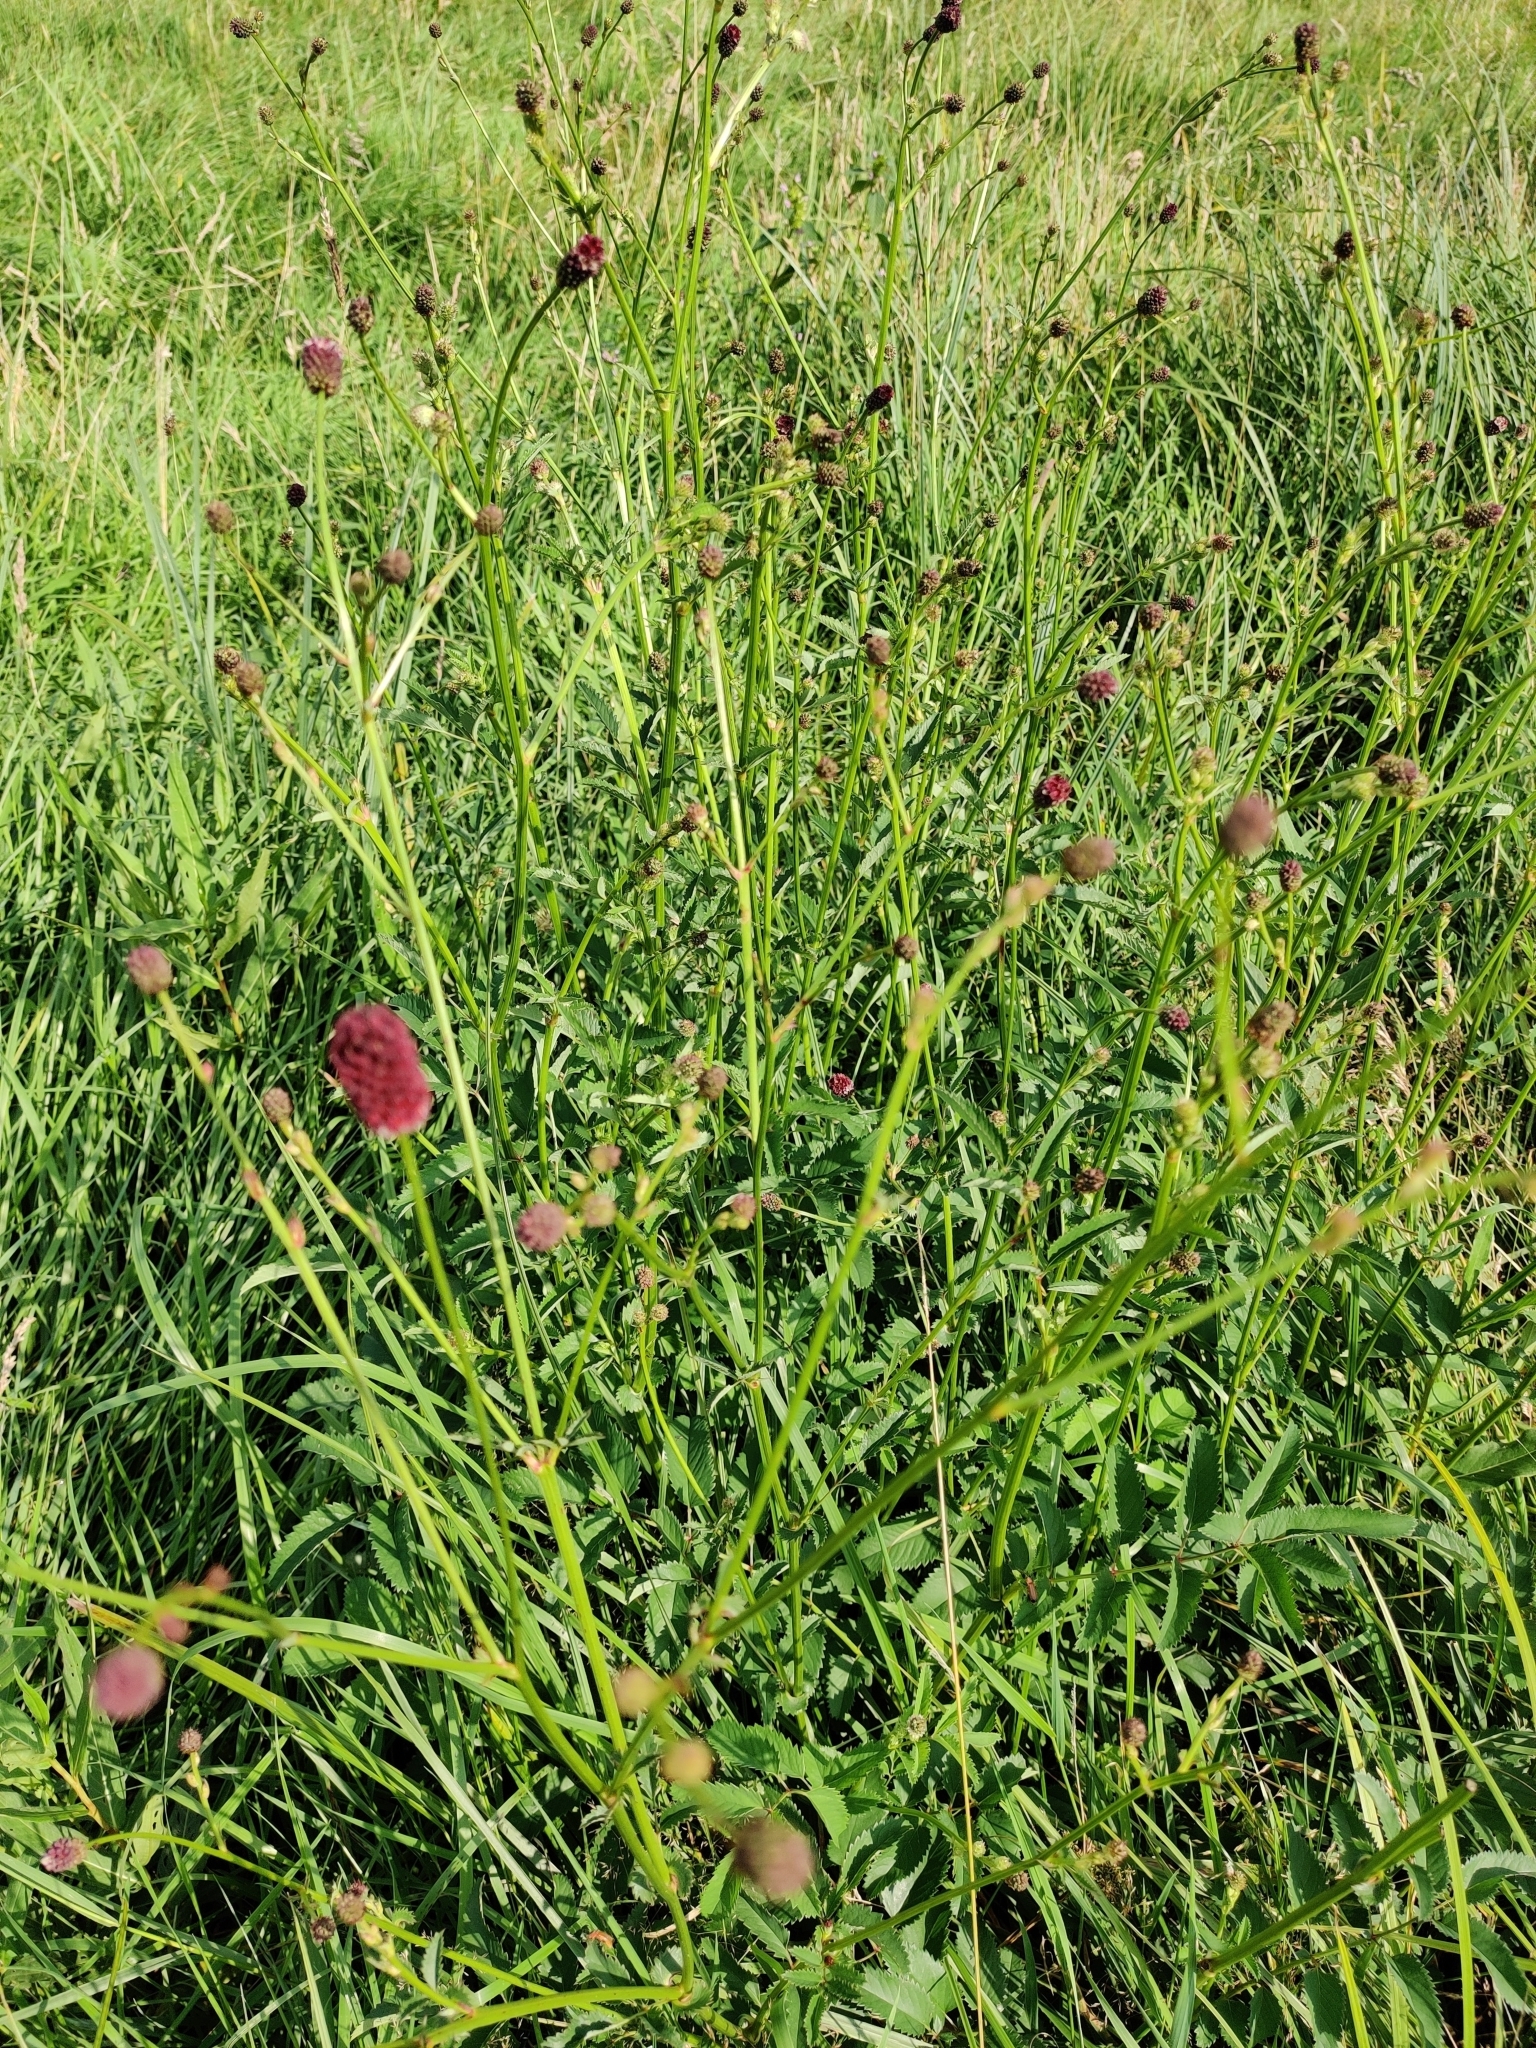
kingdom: Plantae
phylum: Tracheophyta
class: Magnoliopsida
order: Rosales
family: Rosaceae
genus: Sanguisorba
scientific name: Sanguisorba officinalis
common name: Great burnet
